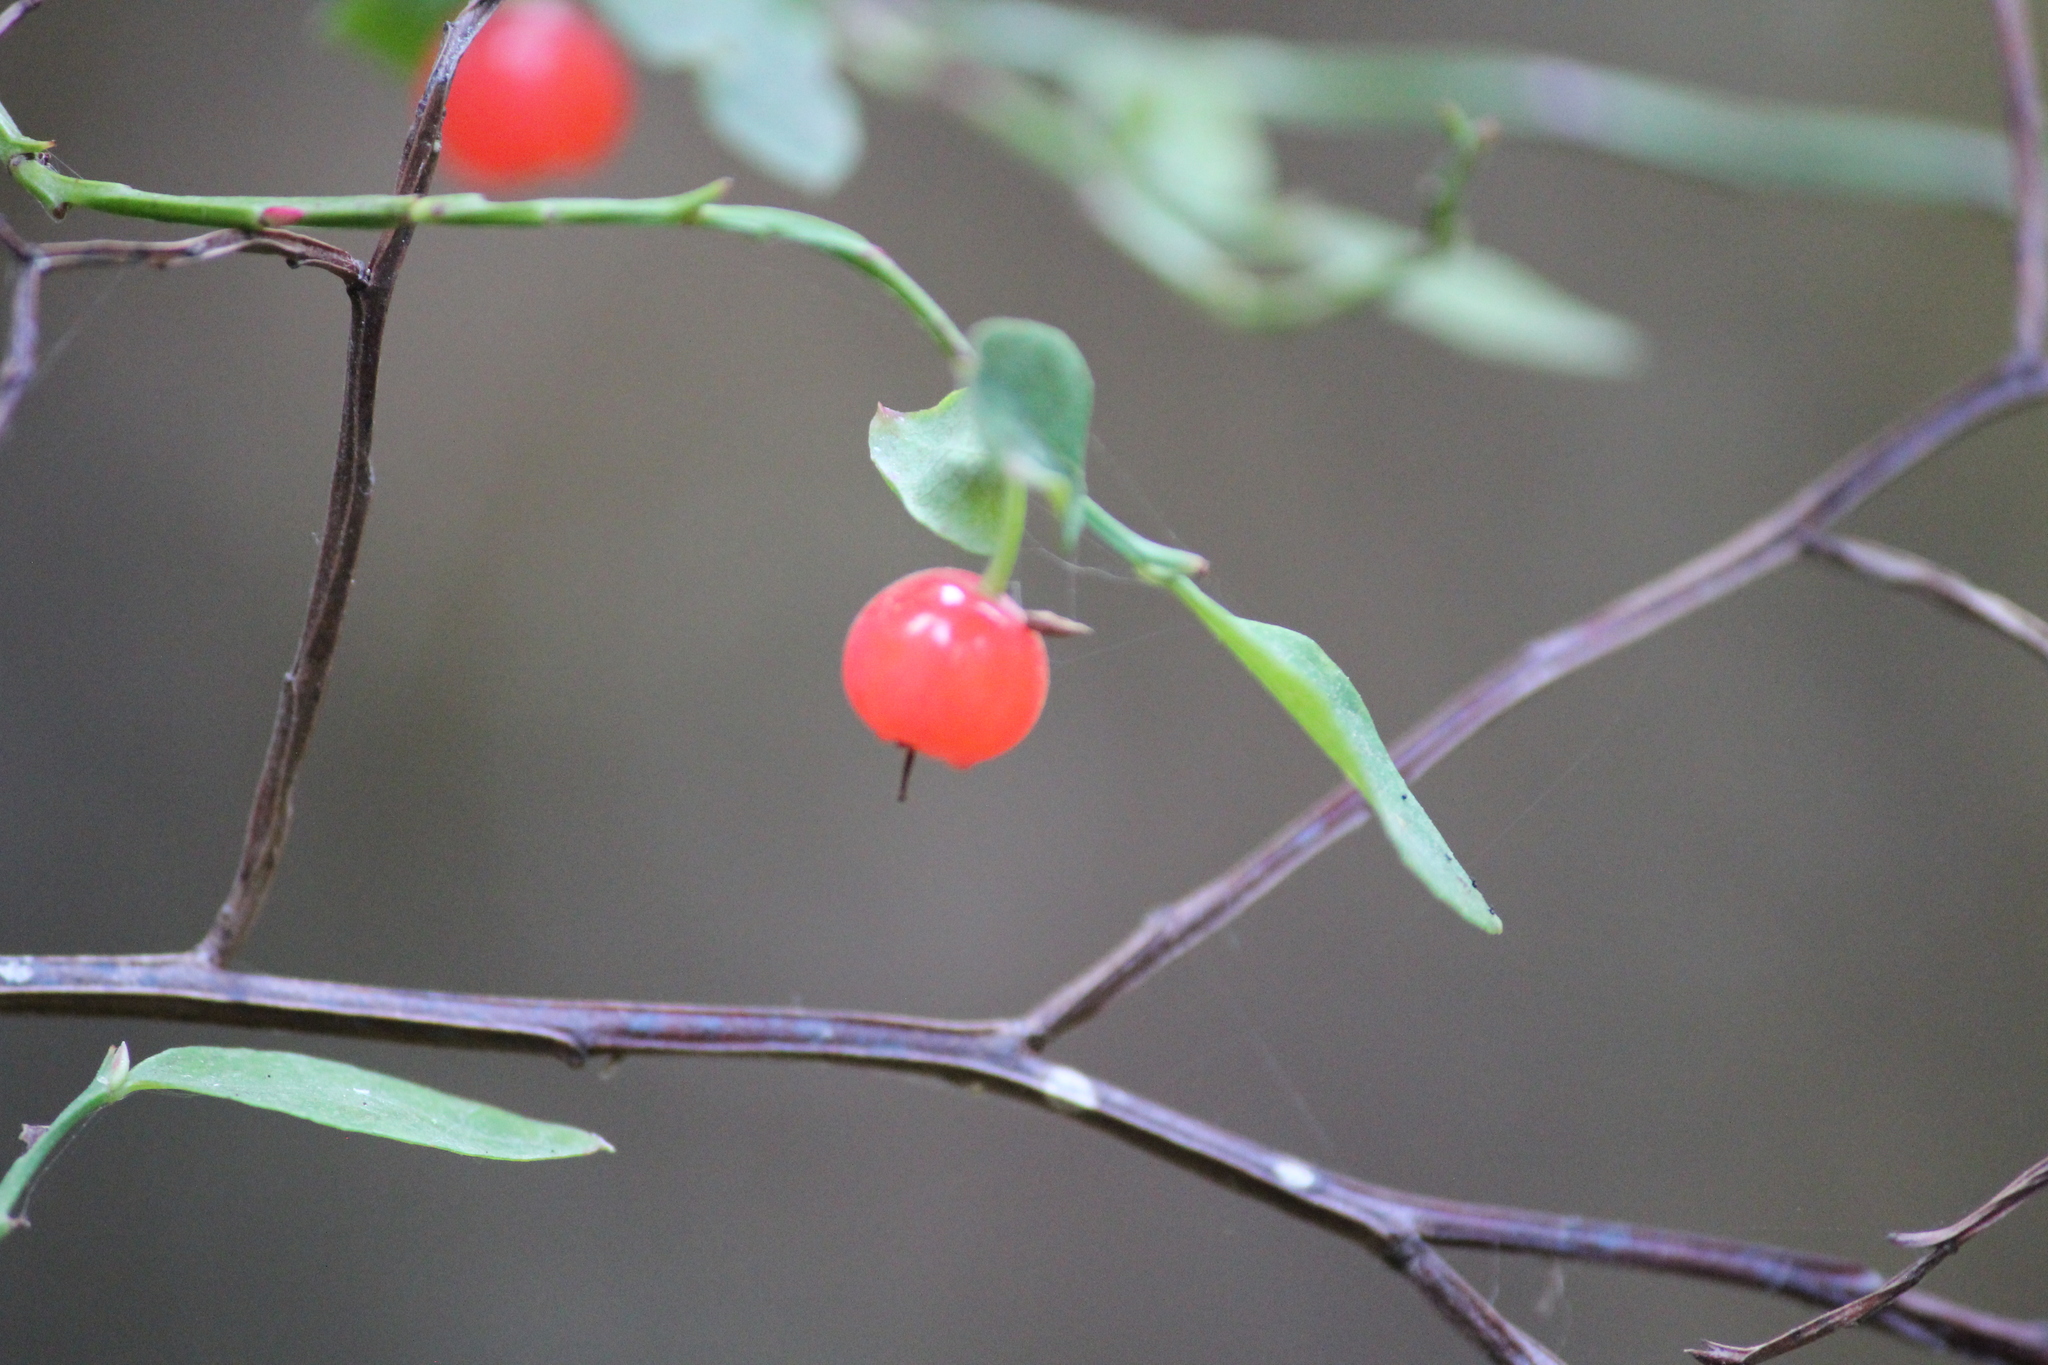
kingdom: Plantae
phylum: Tracheophyta
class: Magnoliopsida
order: Ericales
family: Ericaceae
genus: Vaccinium
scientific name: Vaccinium parvifolium
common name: Red-huckleberry
